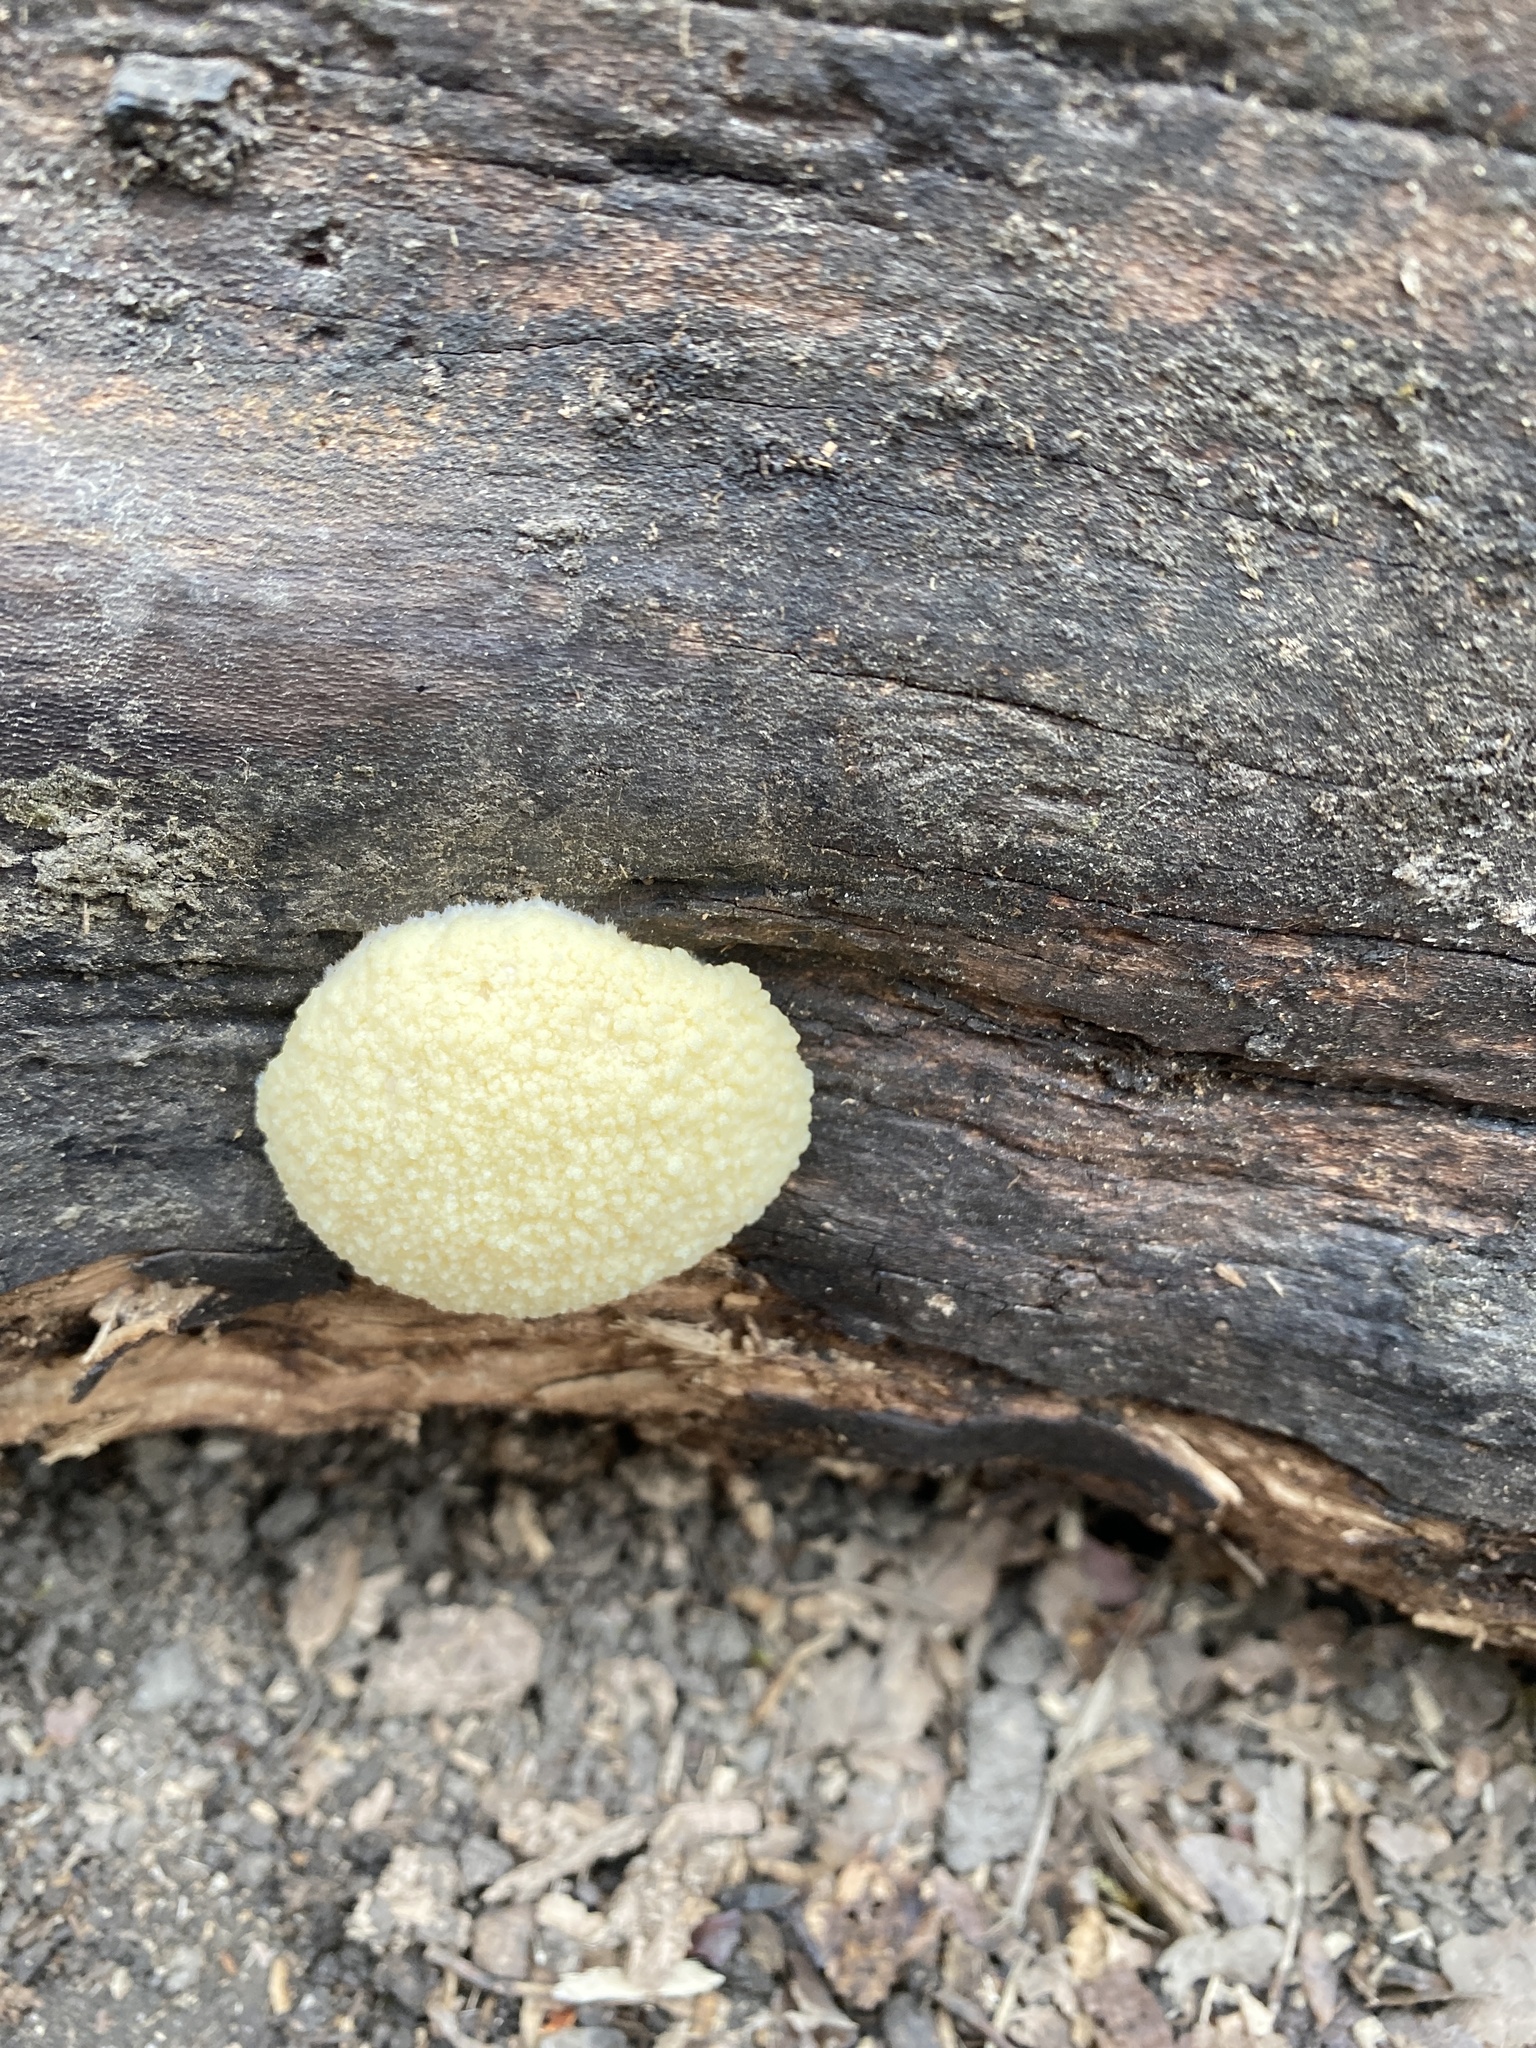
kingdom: Protozoa
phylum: Mycetozoa
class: Myxomycetes
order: Cribrariales
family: Tubiferaceae
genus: Reticularia
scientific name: Reticularia lycoperdon
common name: False puffball
